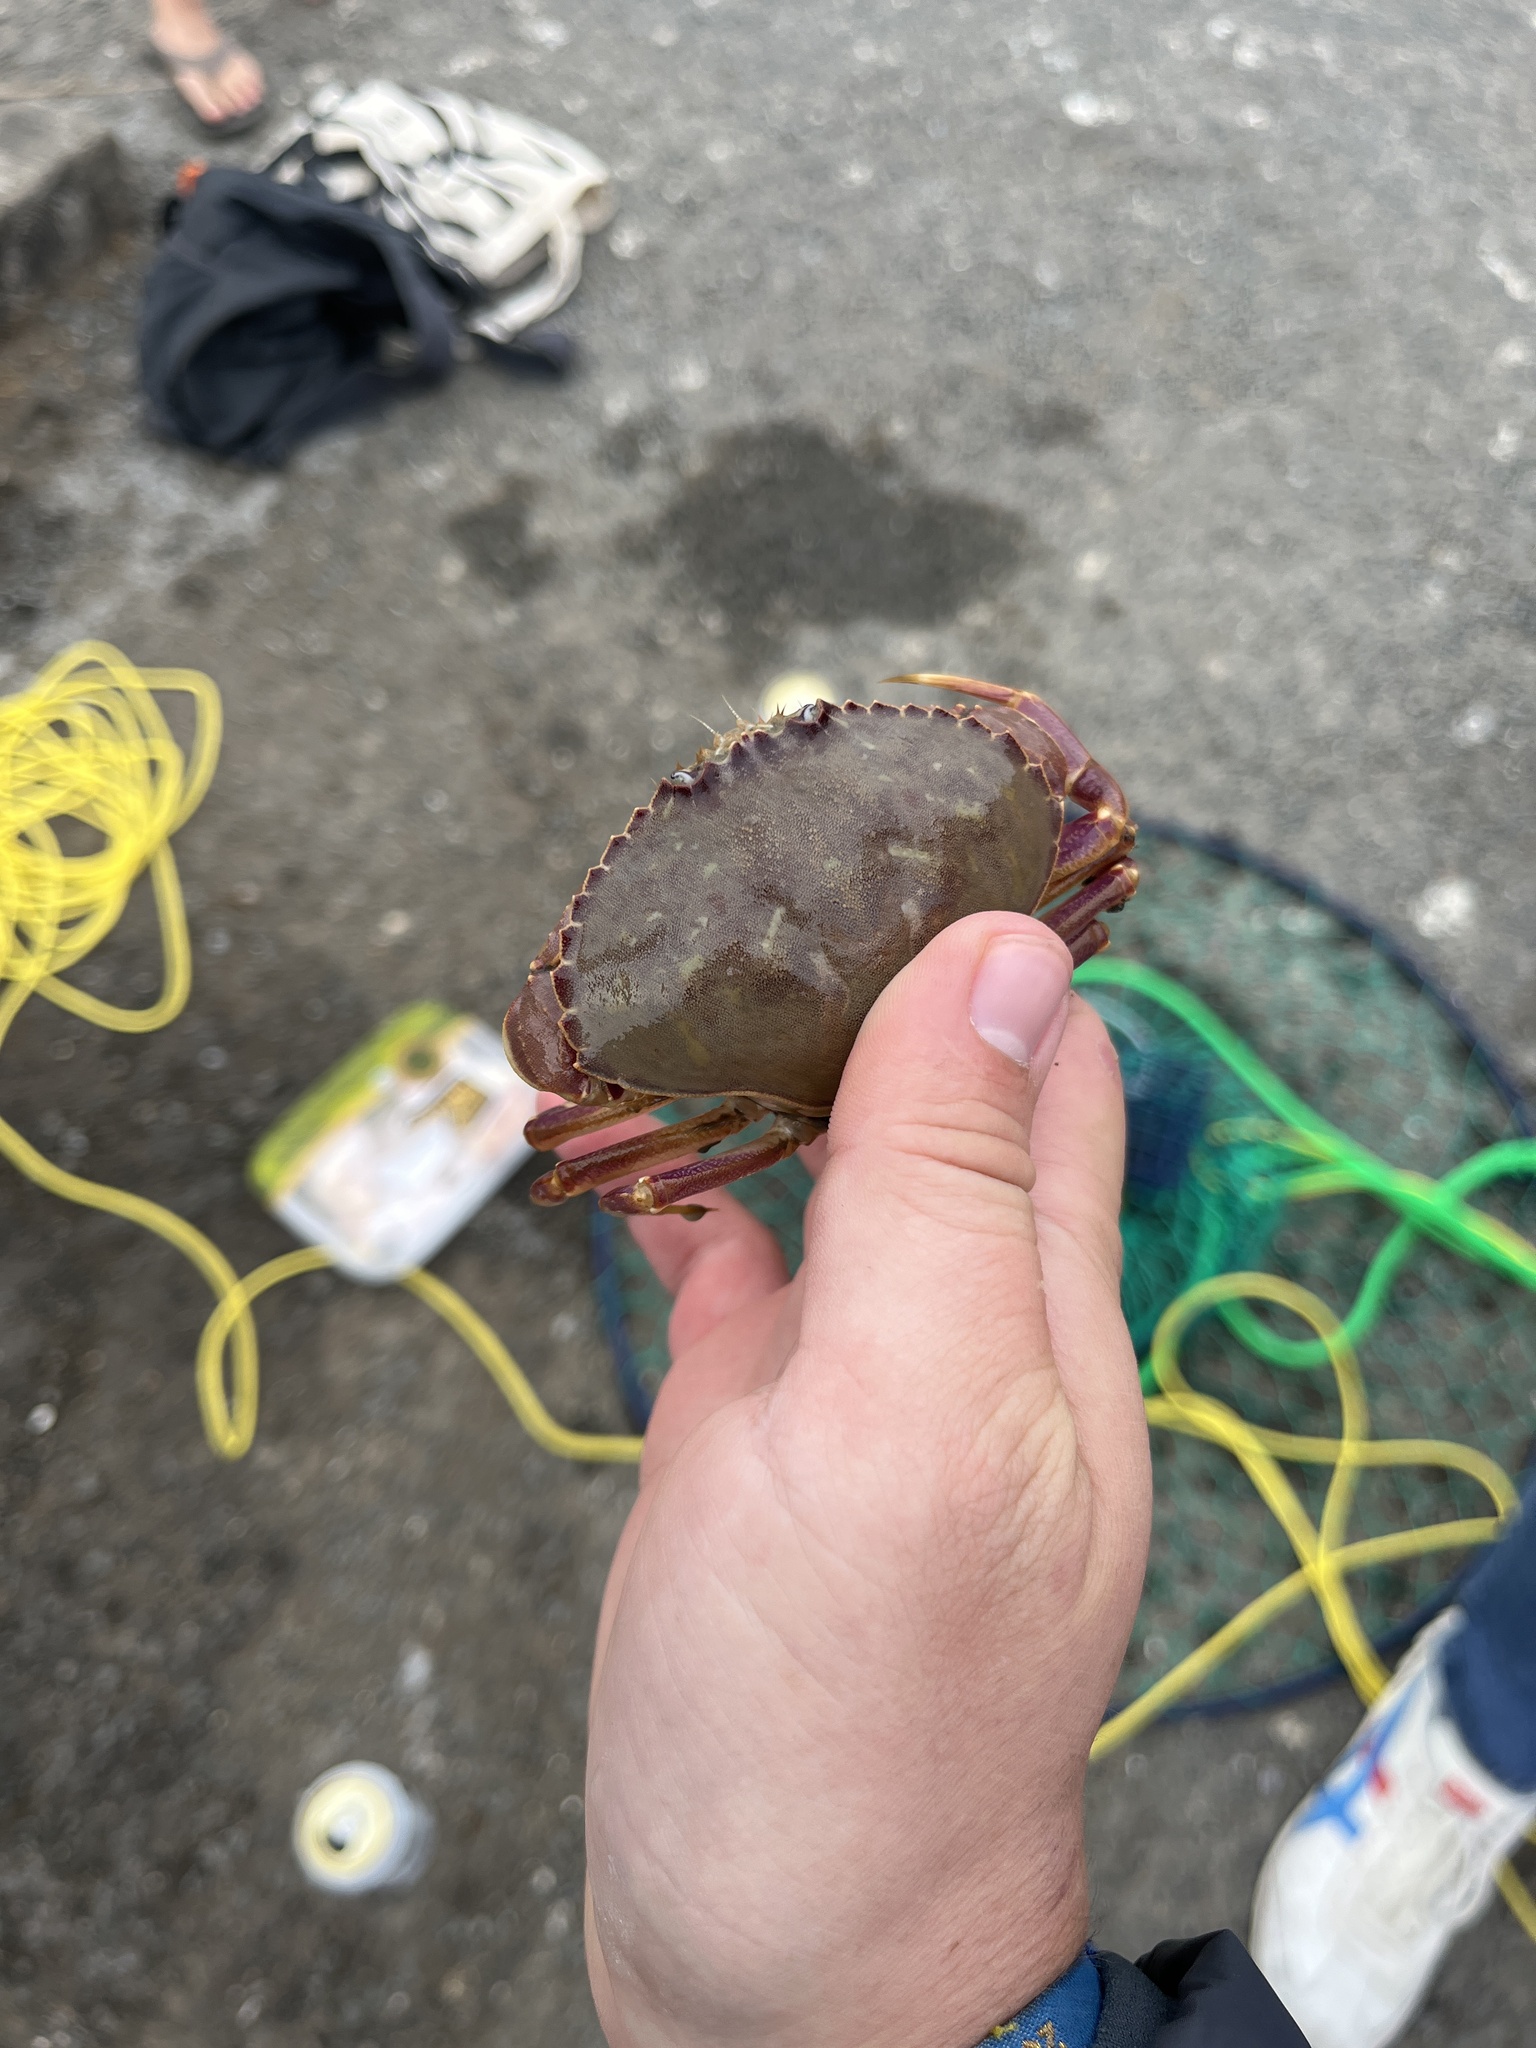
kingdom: Animalia
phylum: Arthropoda
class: Malacostraca
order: Decapoda
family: Cancridae
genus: Metacarcinus
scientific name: Metacarcinus gracilis
